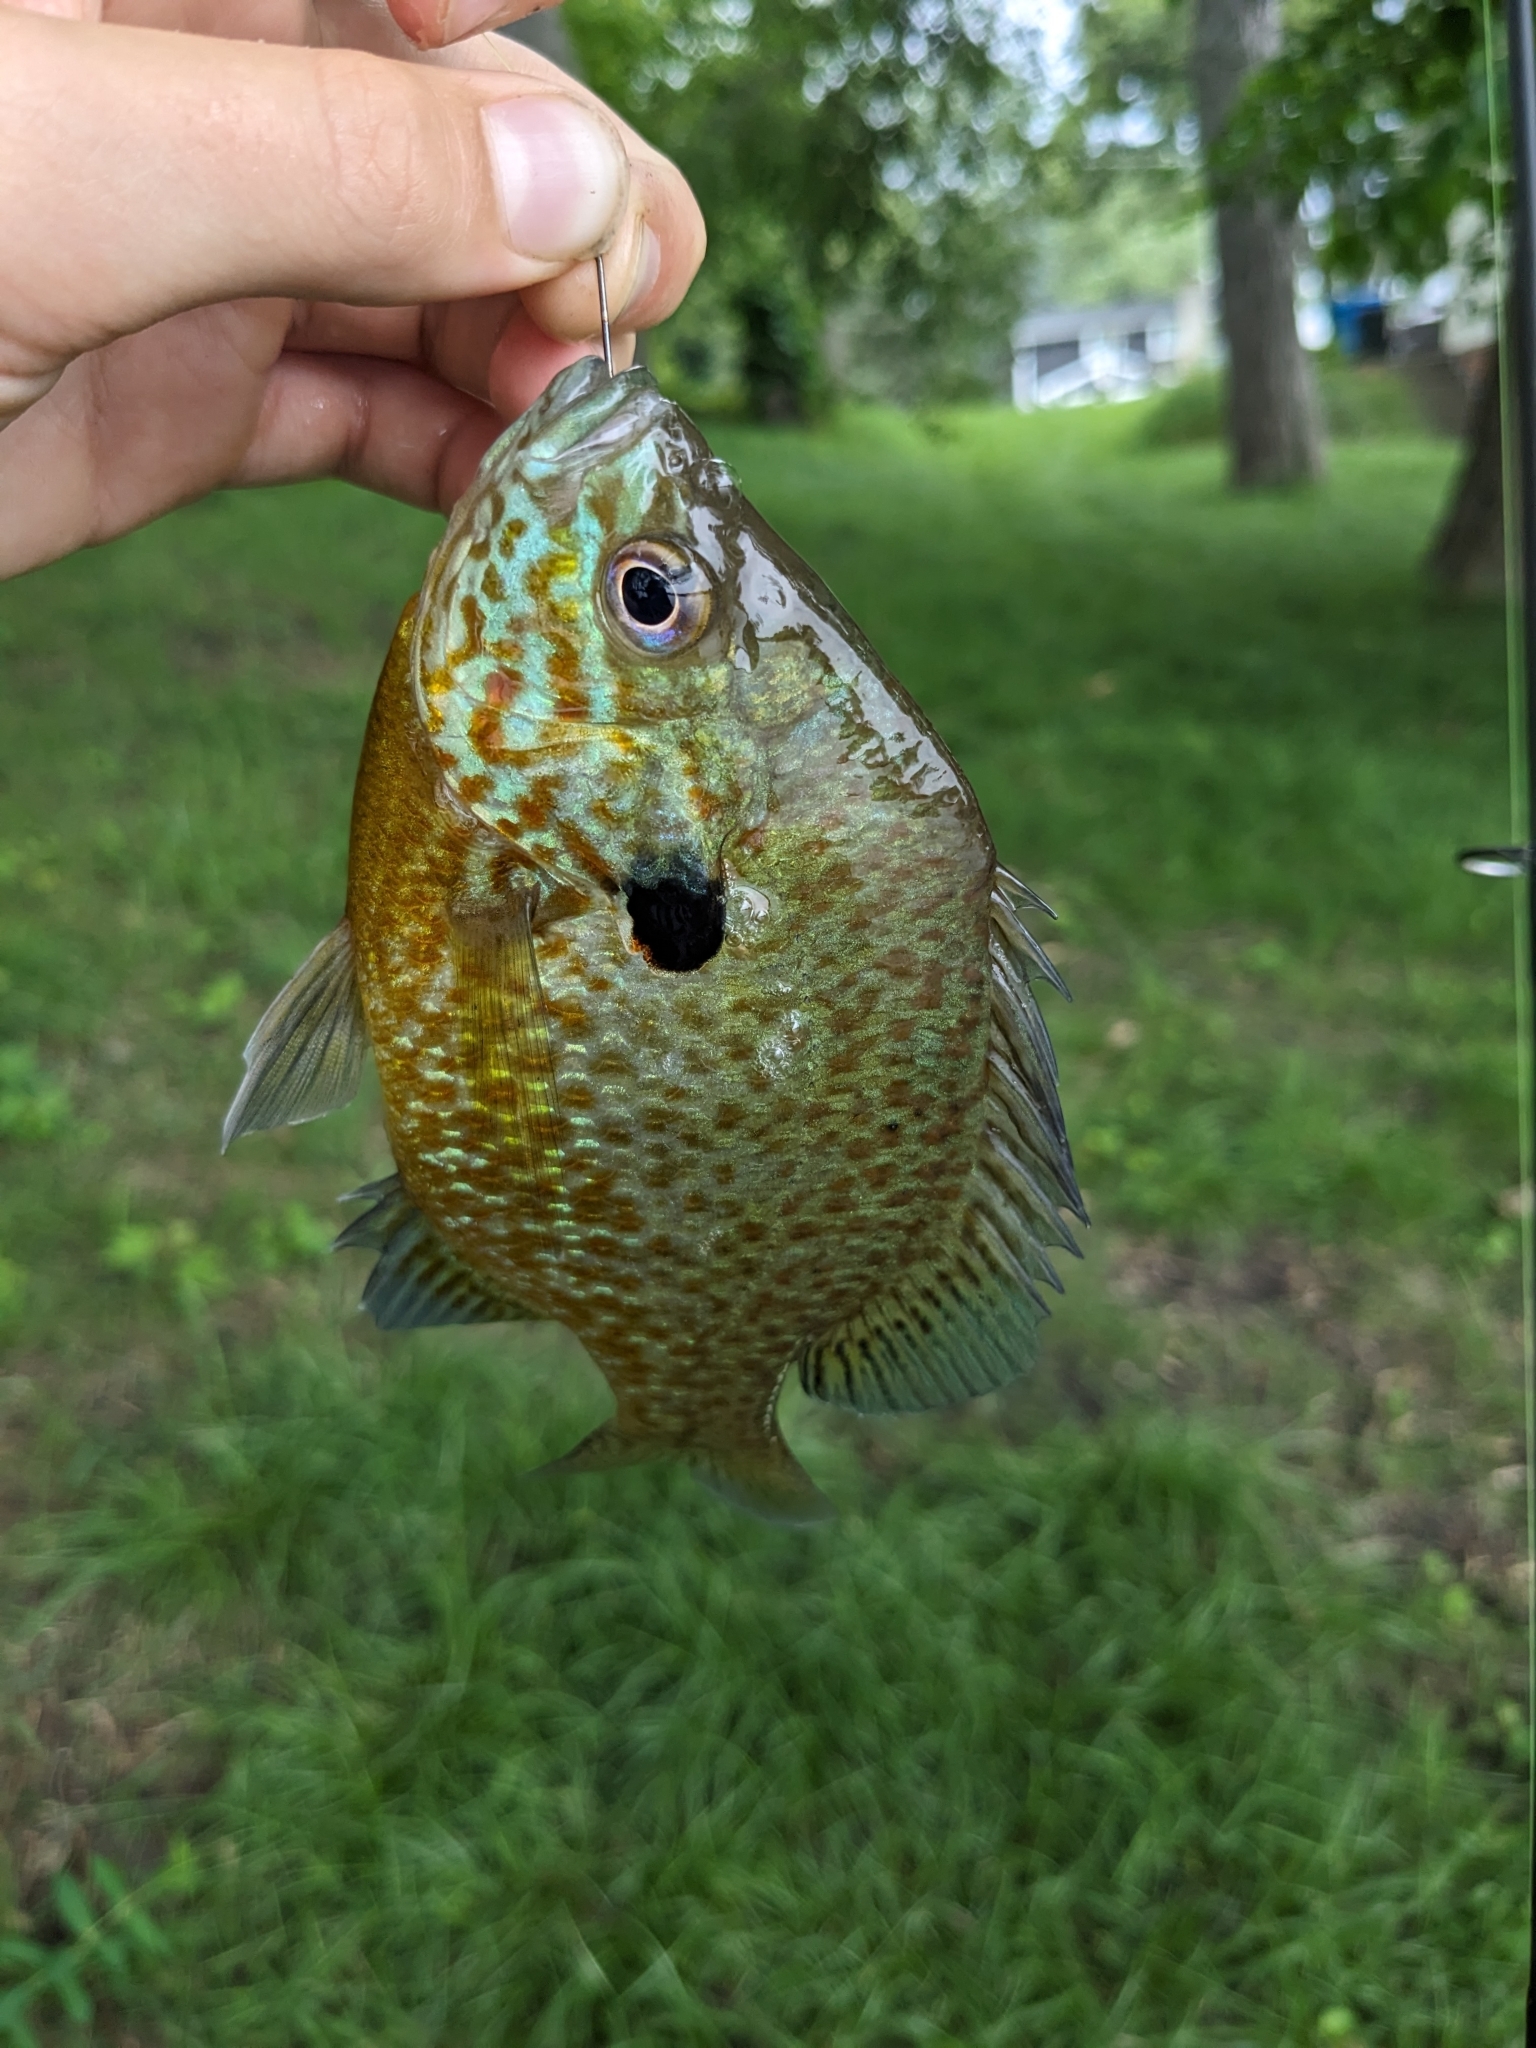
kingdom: Animalia
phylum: Chordata
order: Perciformes
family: Centrarchidae
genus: Lepomis
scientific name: Lepomis
